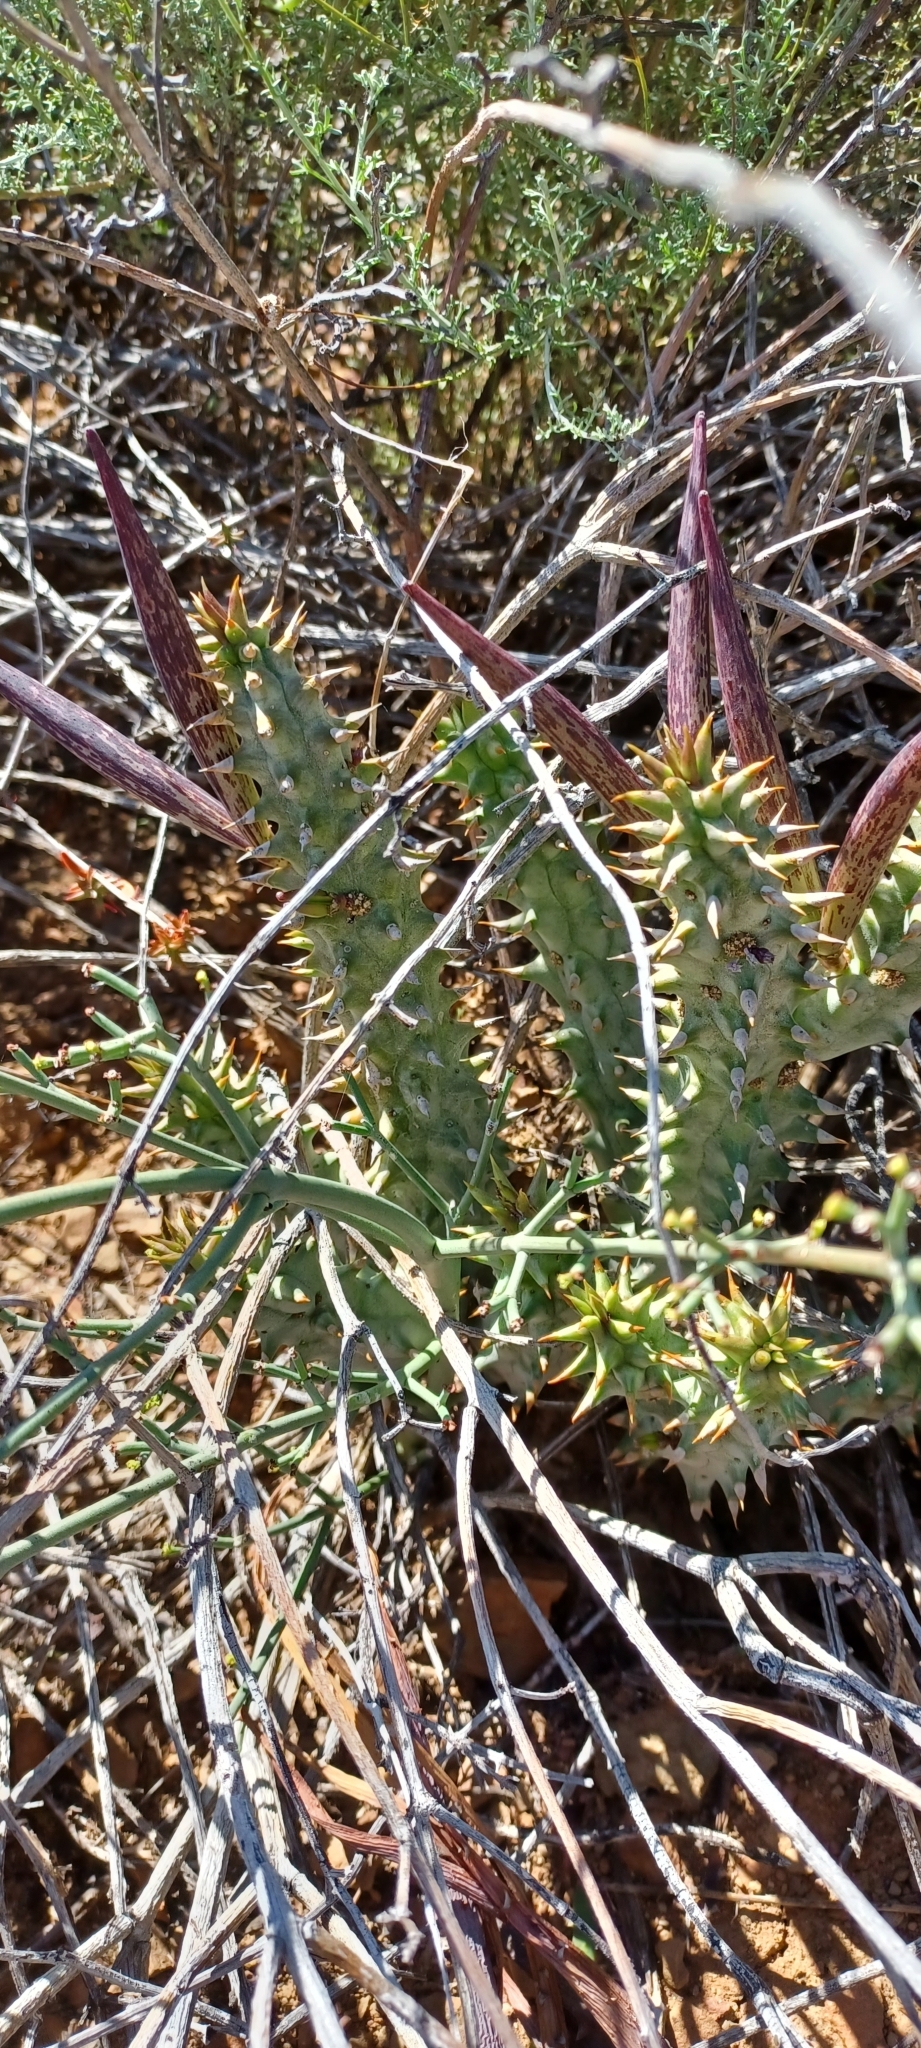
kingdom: Plantae
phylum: Tracheophyta
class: Magnoliopsida
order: Gentianales
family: Apocynaceae
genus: Ceropegia
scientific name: Ceropegia mammillaris
